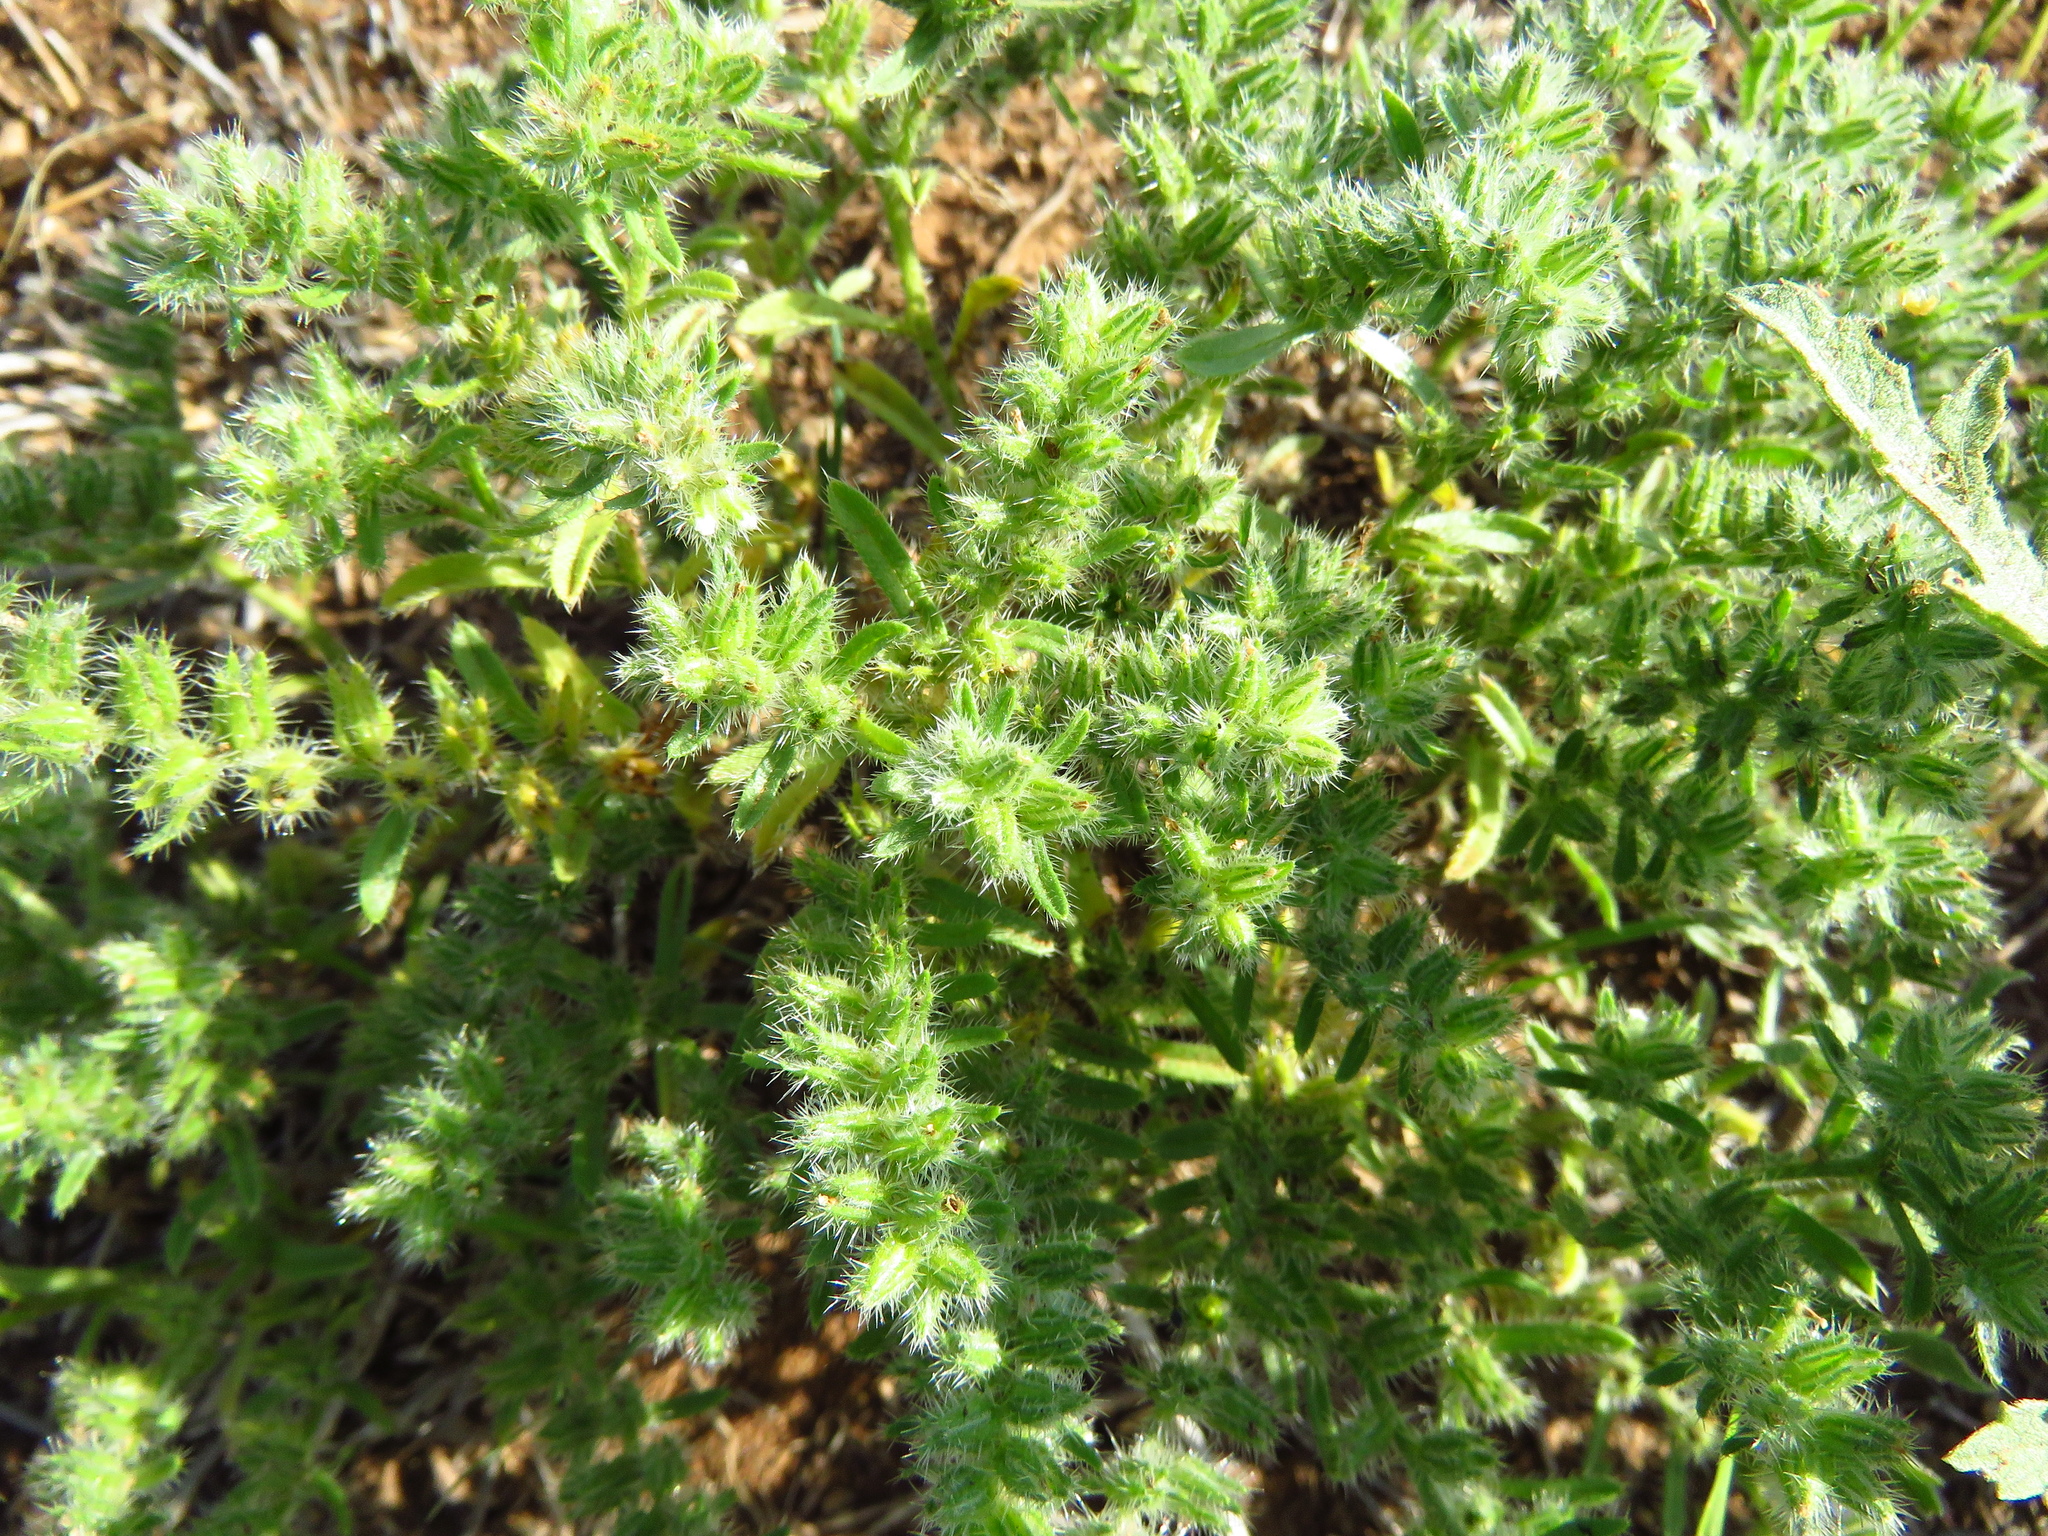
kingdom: Plantae
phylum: Tracheophyta
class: Magnoliopsida
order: Boraginales
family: Boraginaceae
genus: Cryptantha
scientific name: Cryptantha minima
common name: Little cat's-eye
